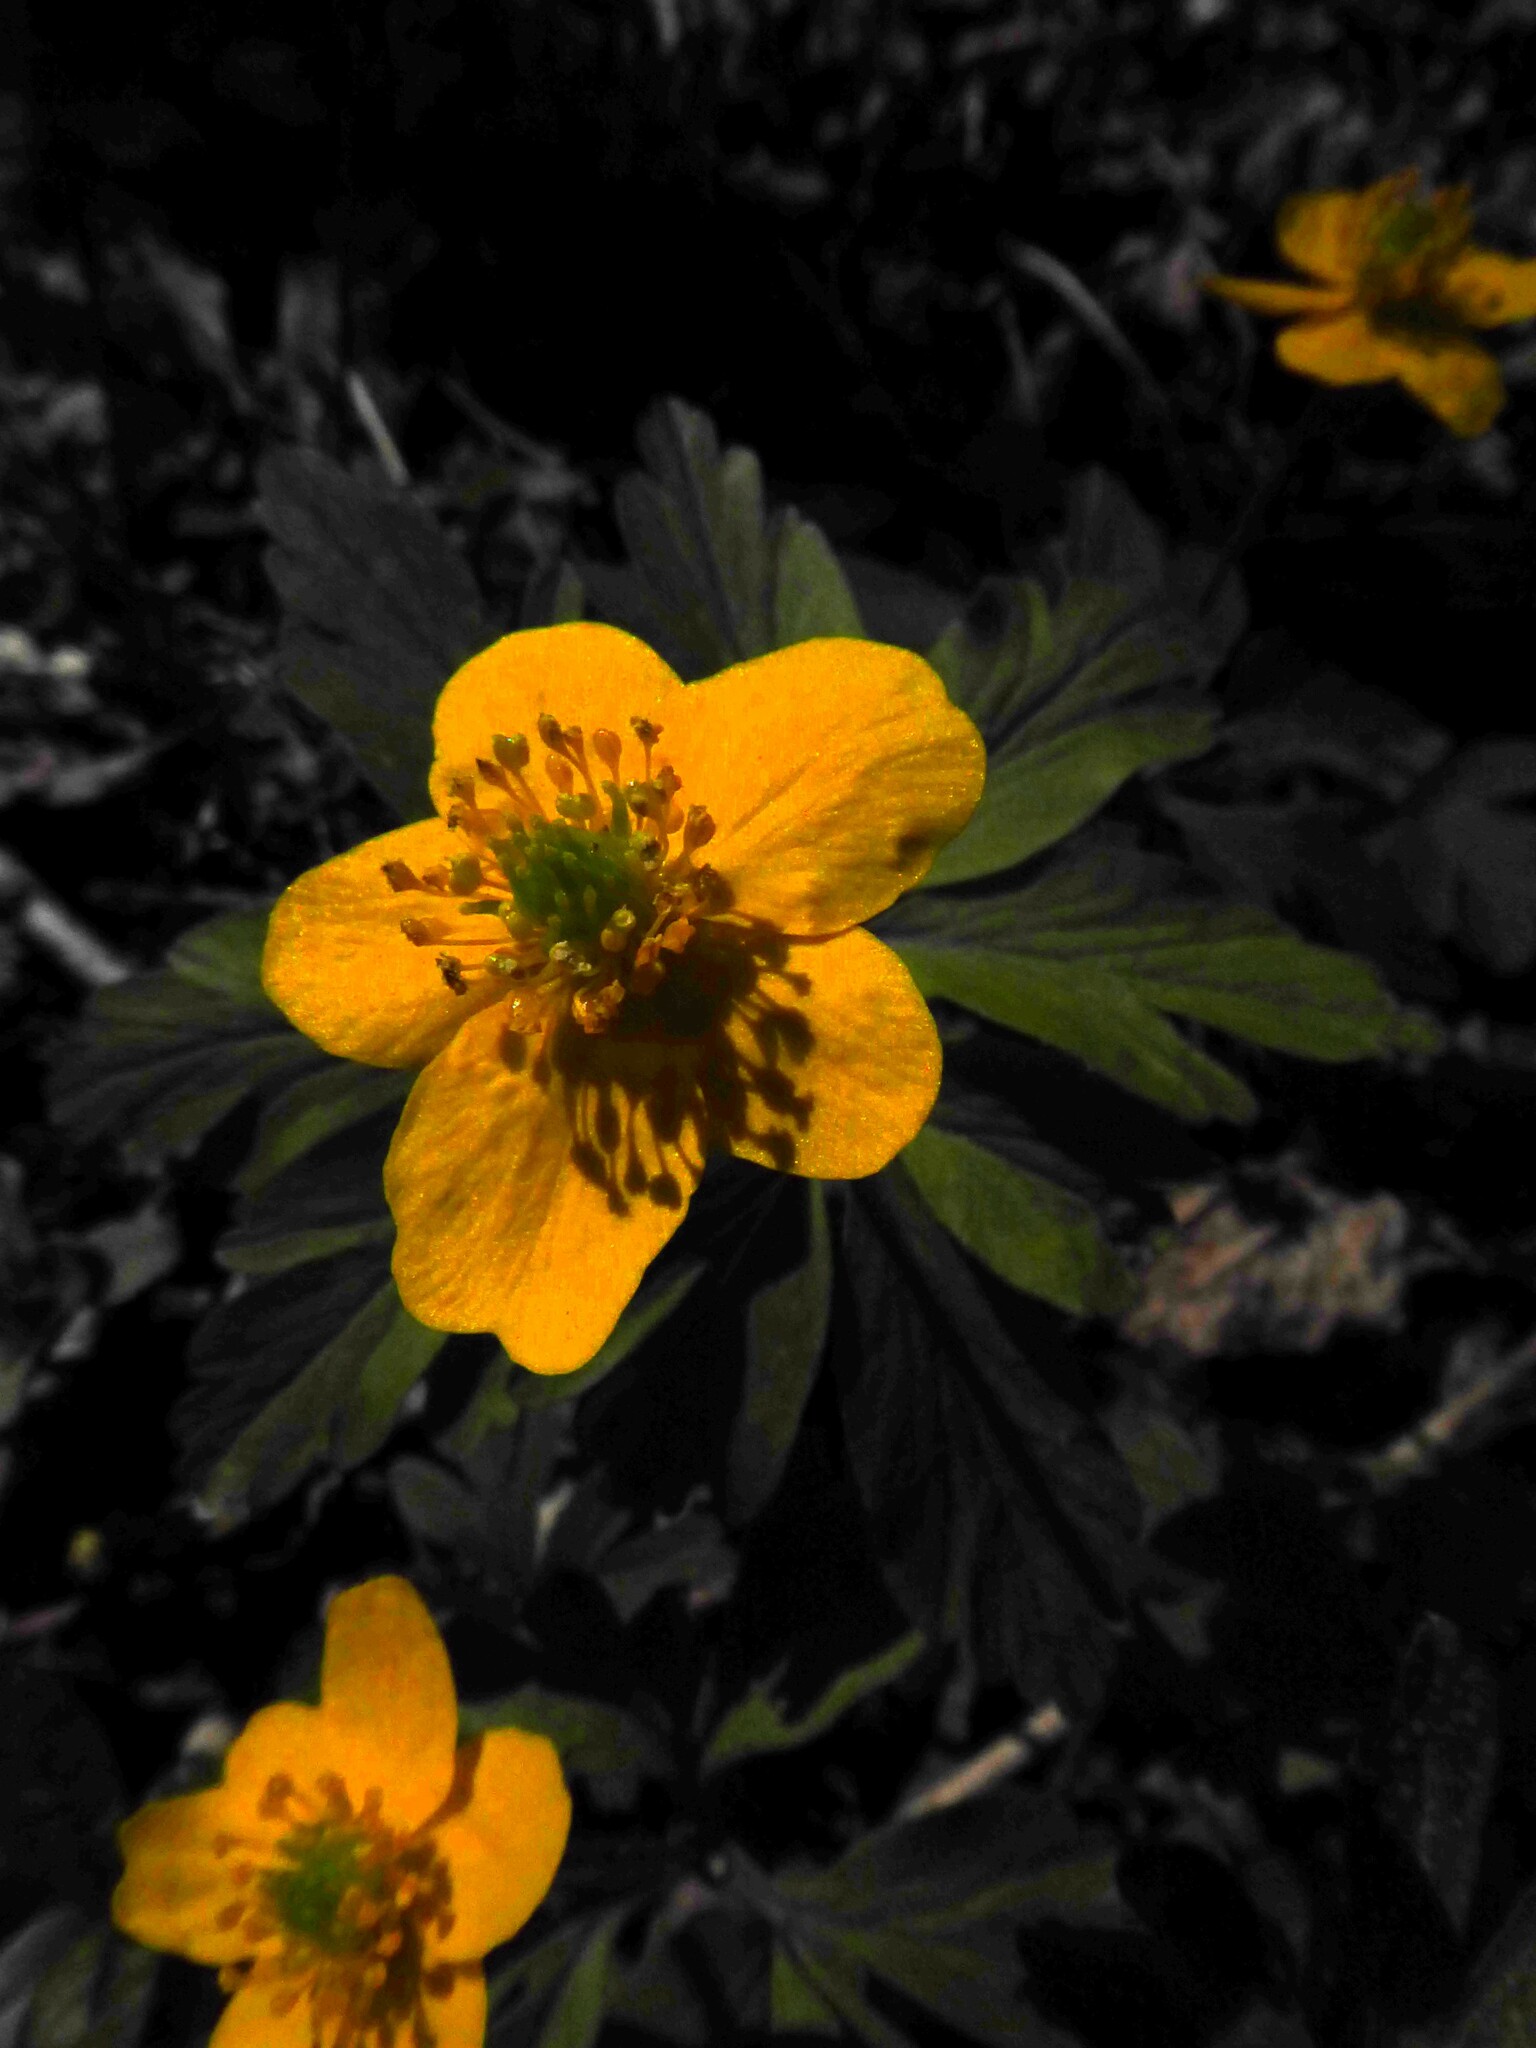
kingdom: Plantae
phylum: Tracheophyta
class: Magnoliopsida
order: Ranunculales
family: Ranunculaceae
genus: Anemone
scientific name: Anemone ranunculoides
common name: Yellow anemone
